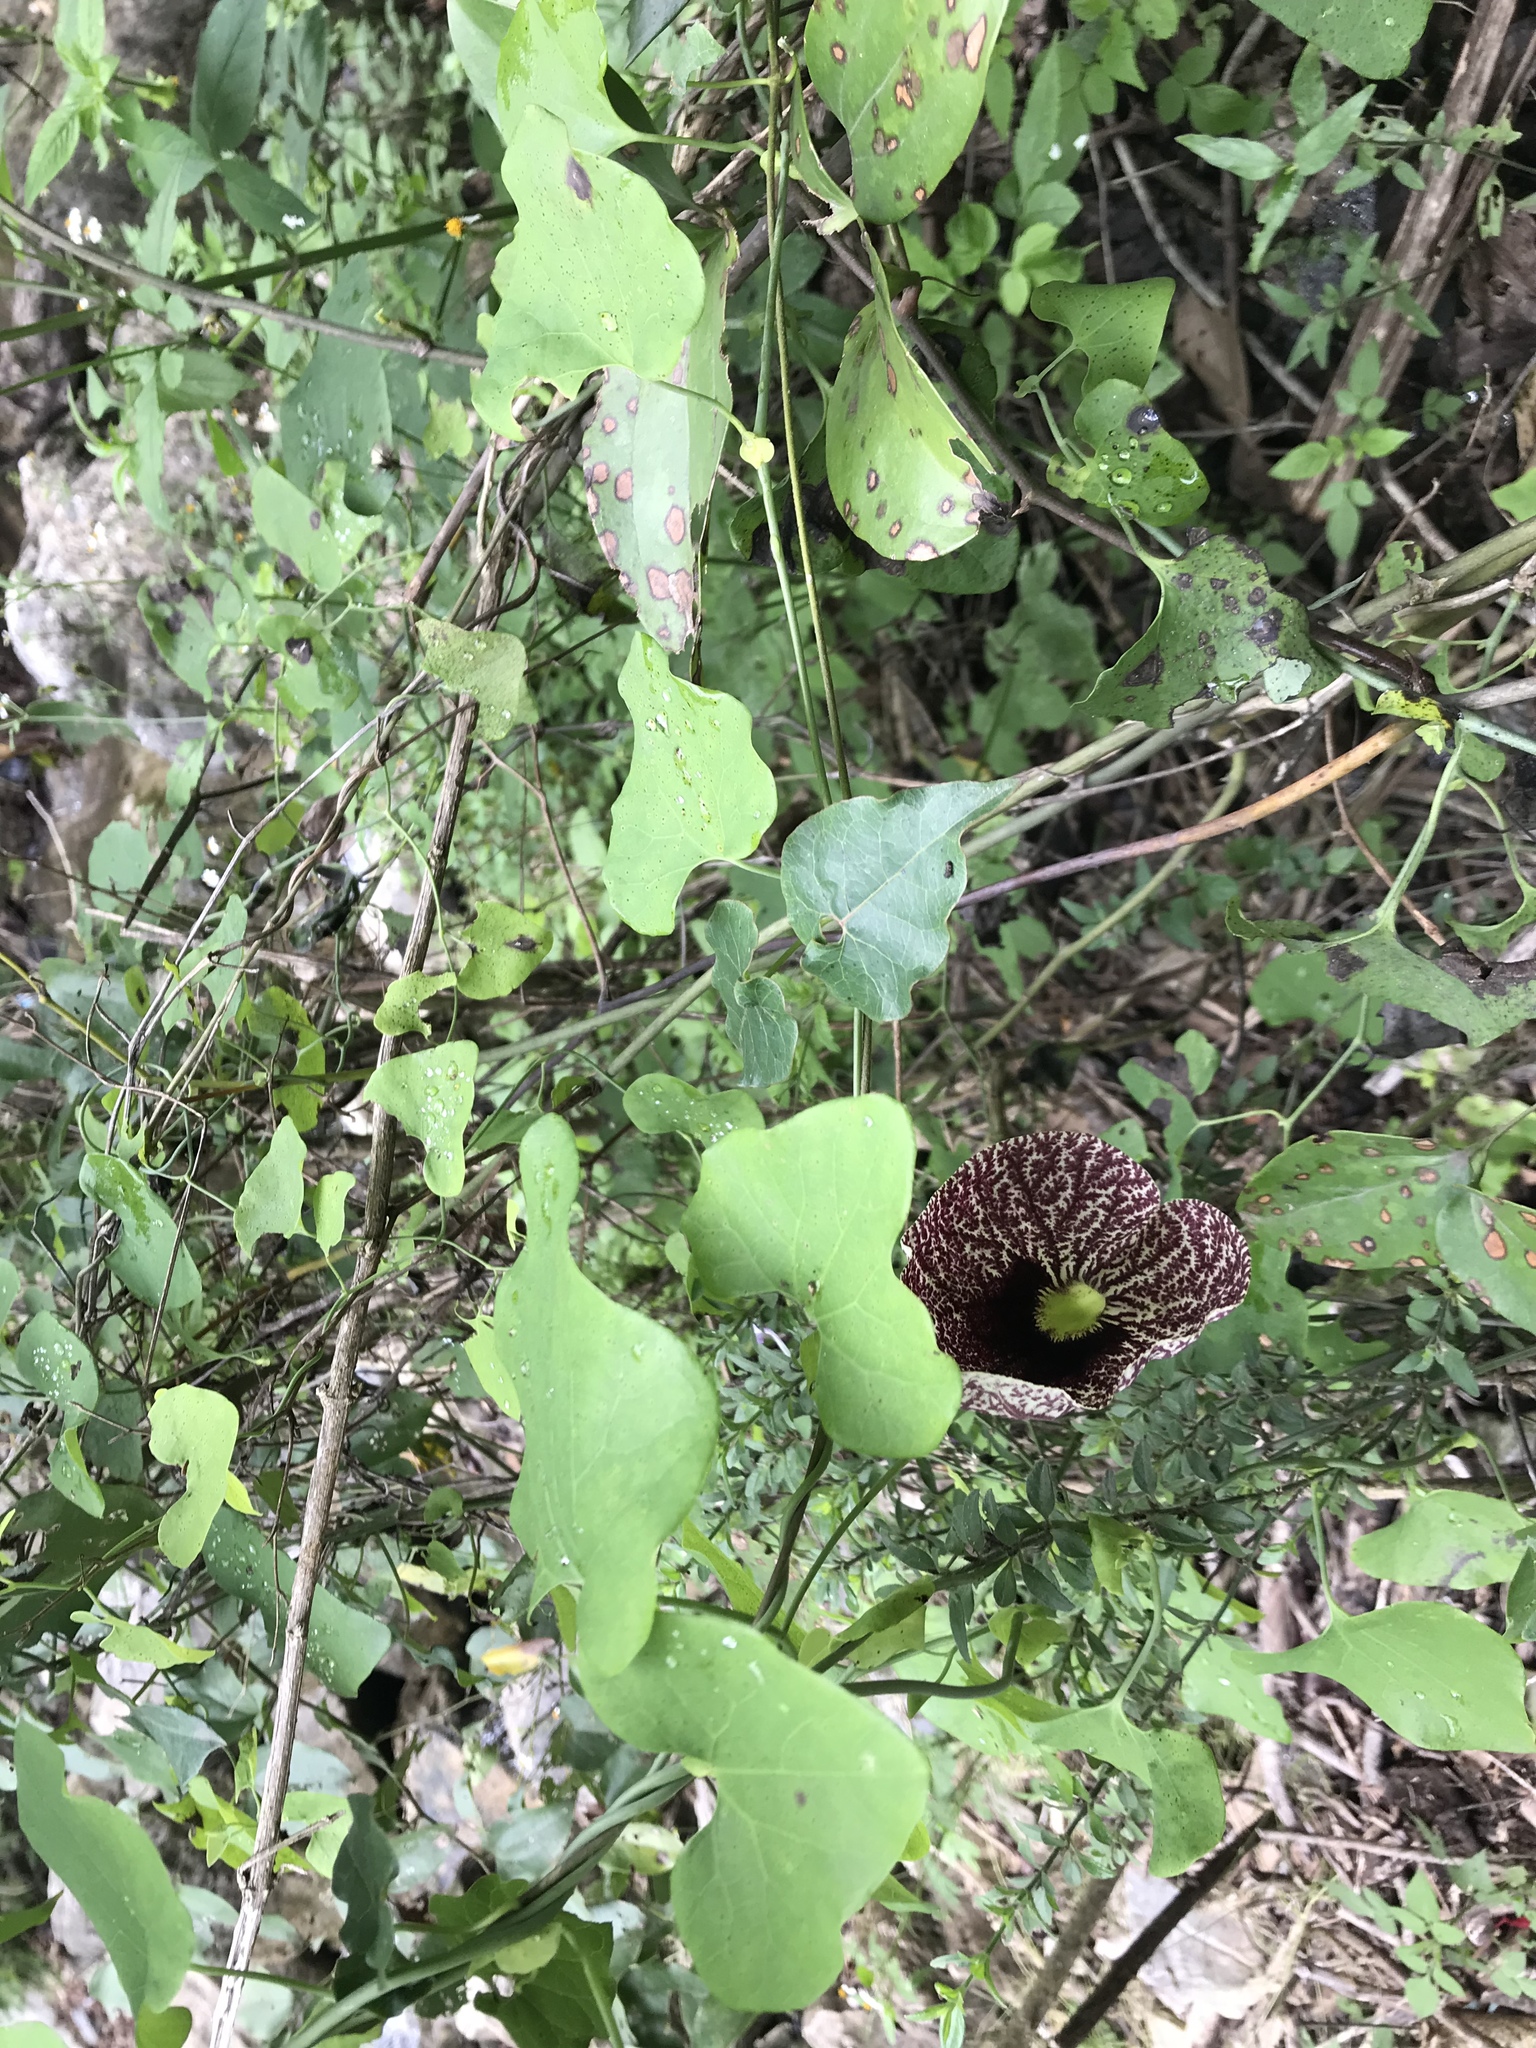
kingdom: Plantae
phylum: Tracheophyta
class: Magnoliopsida
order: Piperales
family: Aristolochiaceae
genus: Aristolochia
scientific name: Aristolochia littoralis
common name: Duck
